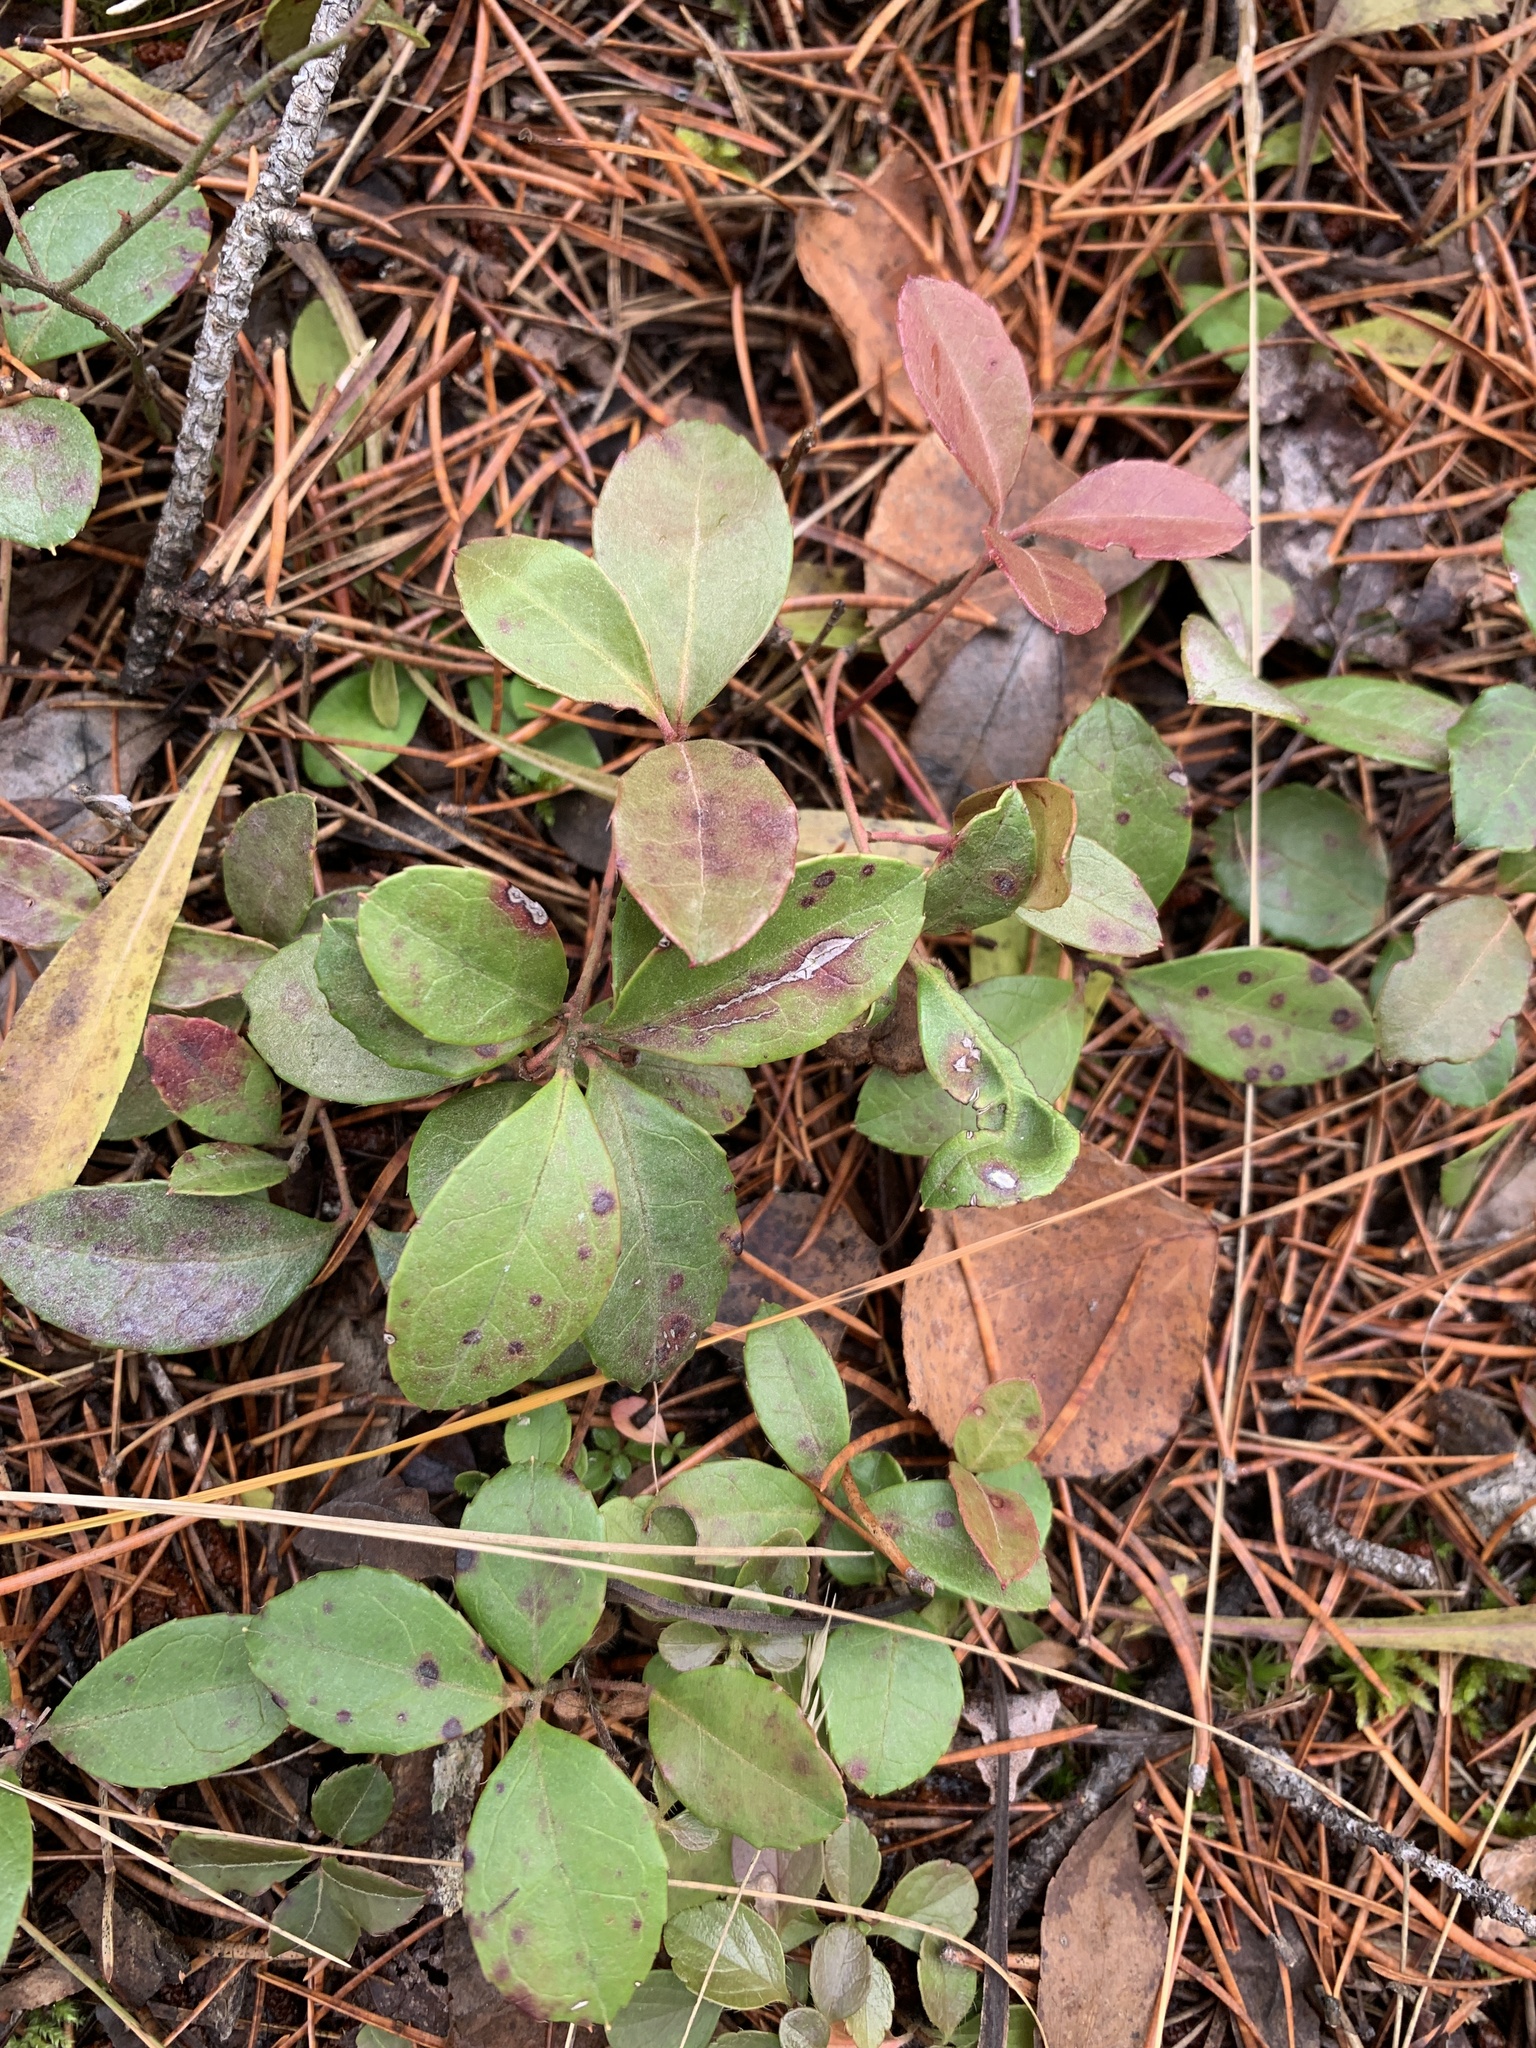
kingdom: Plantae
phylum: Tracheophyta
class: Magnoliopsida
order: Ericales
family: Ericaceae
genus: Gaultheria
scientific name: Gaultheria procumbens
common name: Checkerberry
